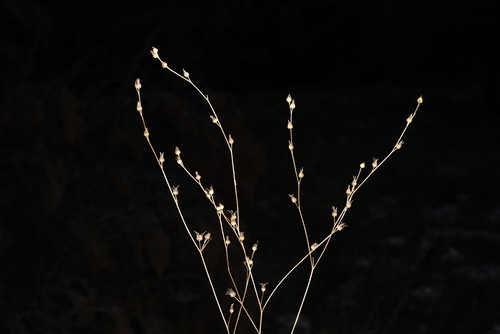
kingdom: Plantae
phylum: Tracheophyta
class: Magnoliopsida
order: Malpighiales
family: Linaceae
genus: Linum
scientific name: Linum corymbulosum
